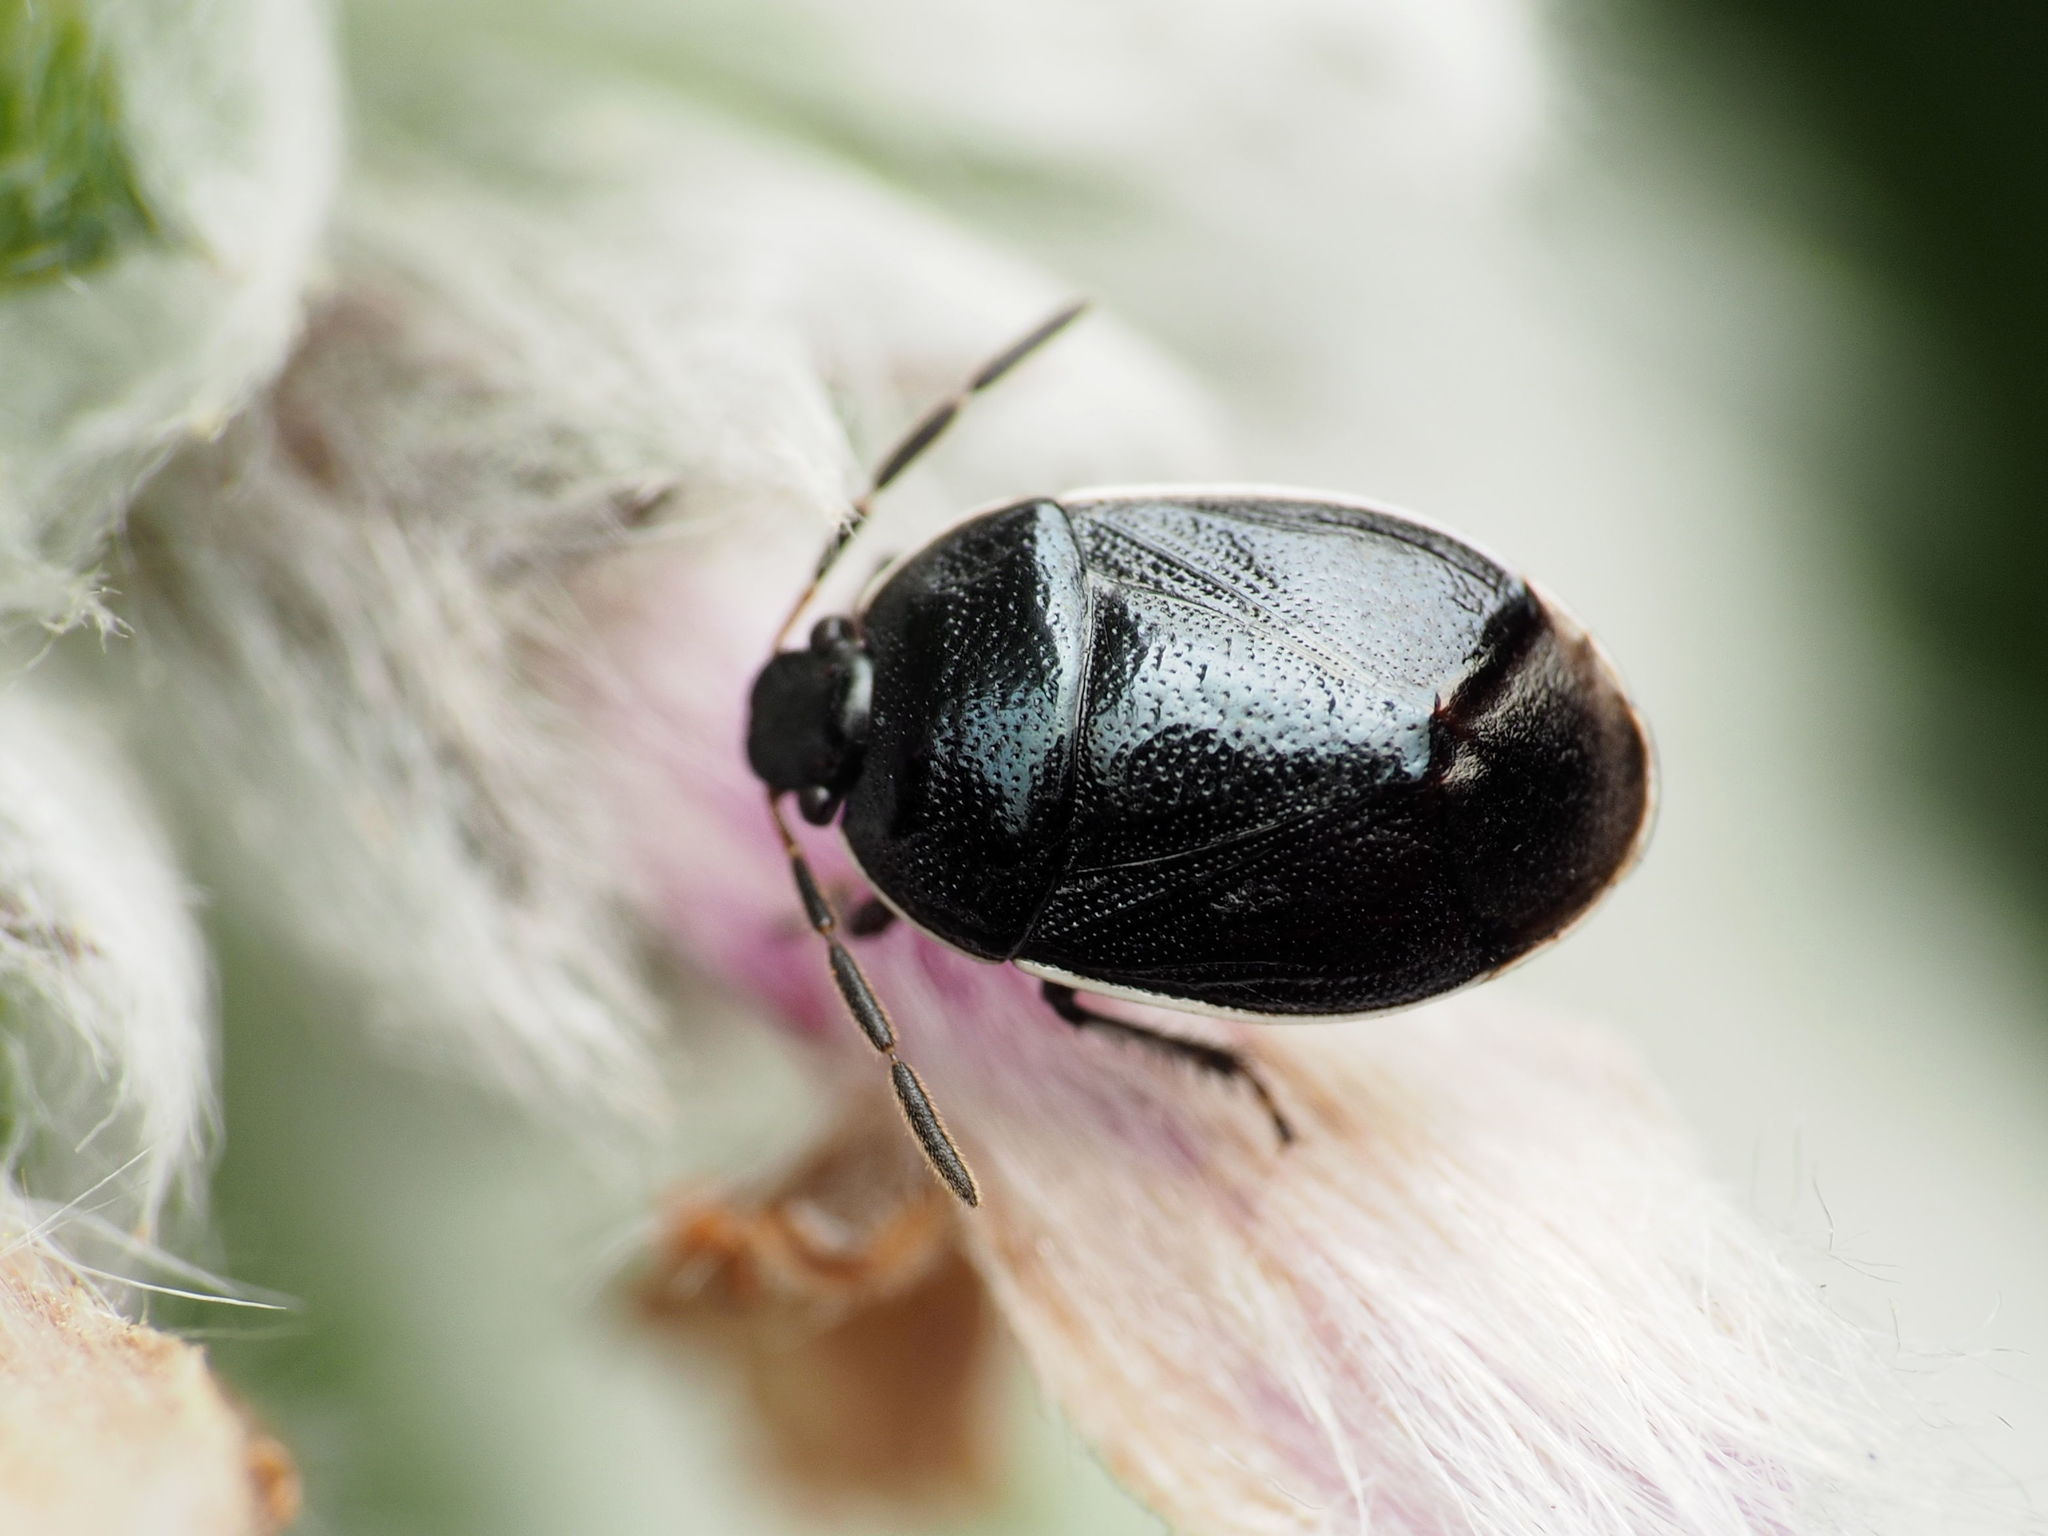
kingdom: Animalia
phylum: Arthropoda
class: Insecta
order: Hemiptera
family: Cydnidae
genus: Sehirus
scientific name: Sehirus cinctus
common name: White-margined burrower bug
